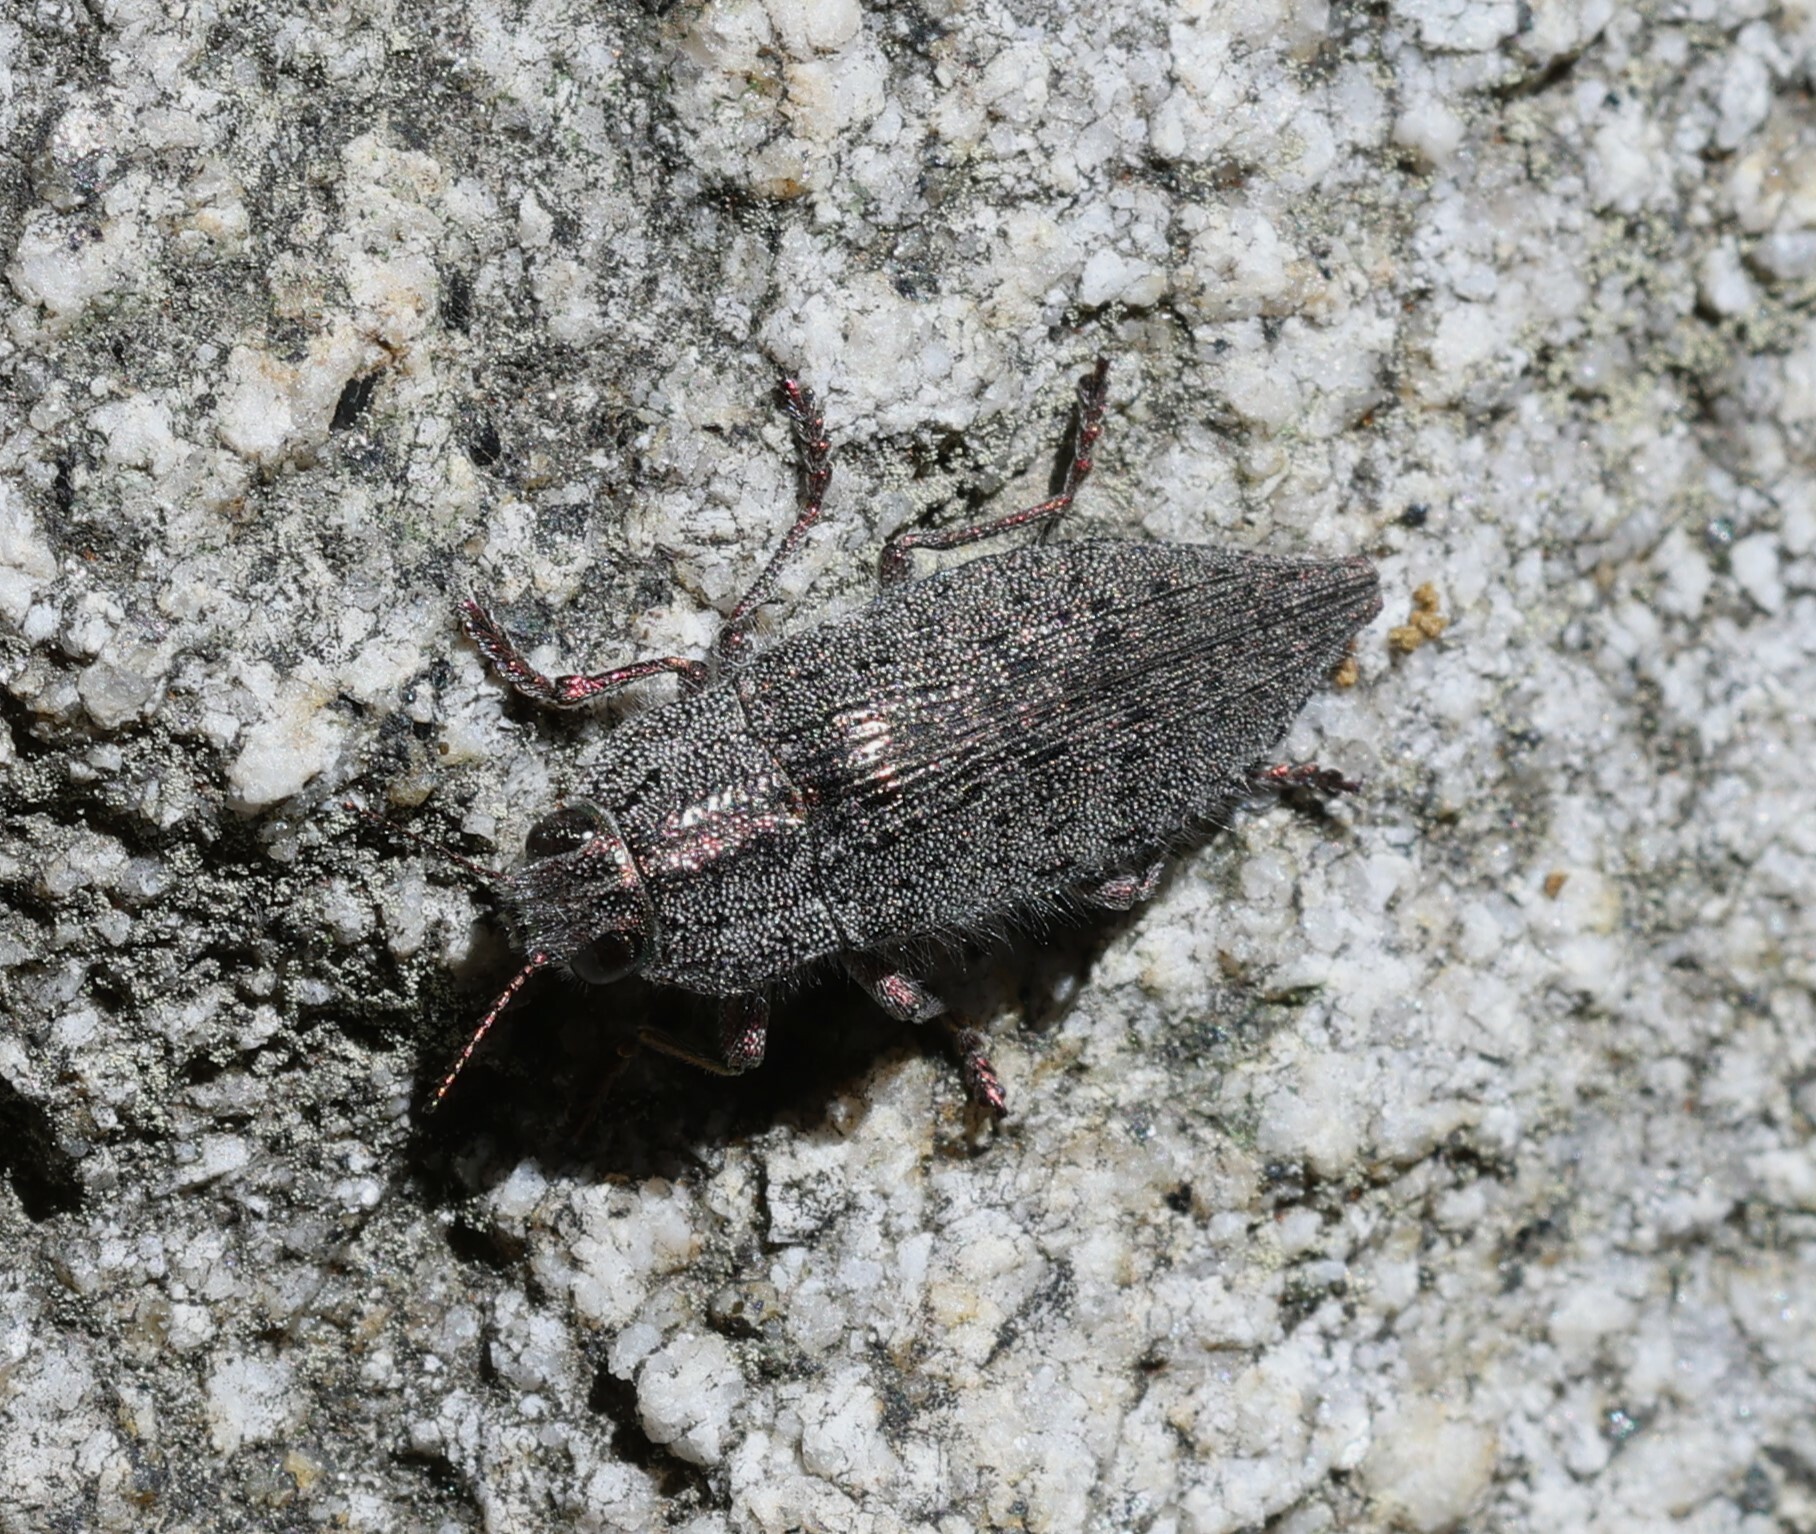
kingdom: Animalia
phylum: Arthropoda
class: Insecta
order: Coleoptera
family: Buprestidae
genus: Dicerca
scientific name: Dicerca hornii
